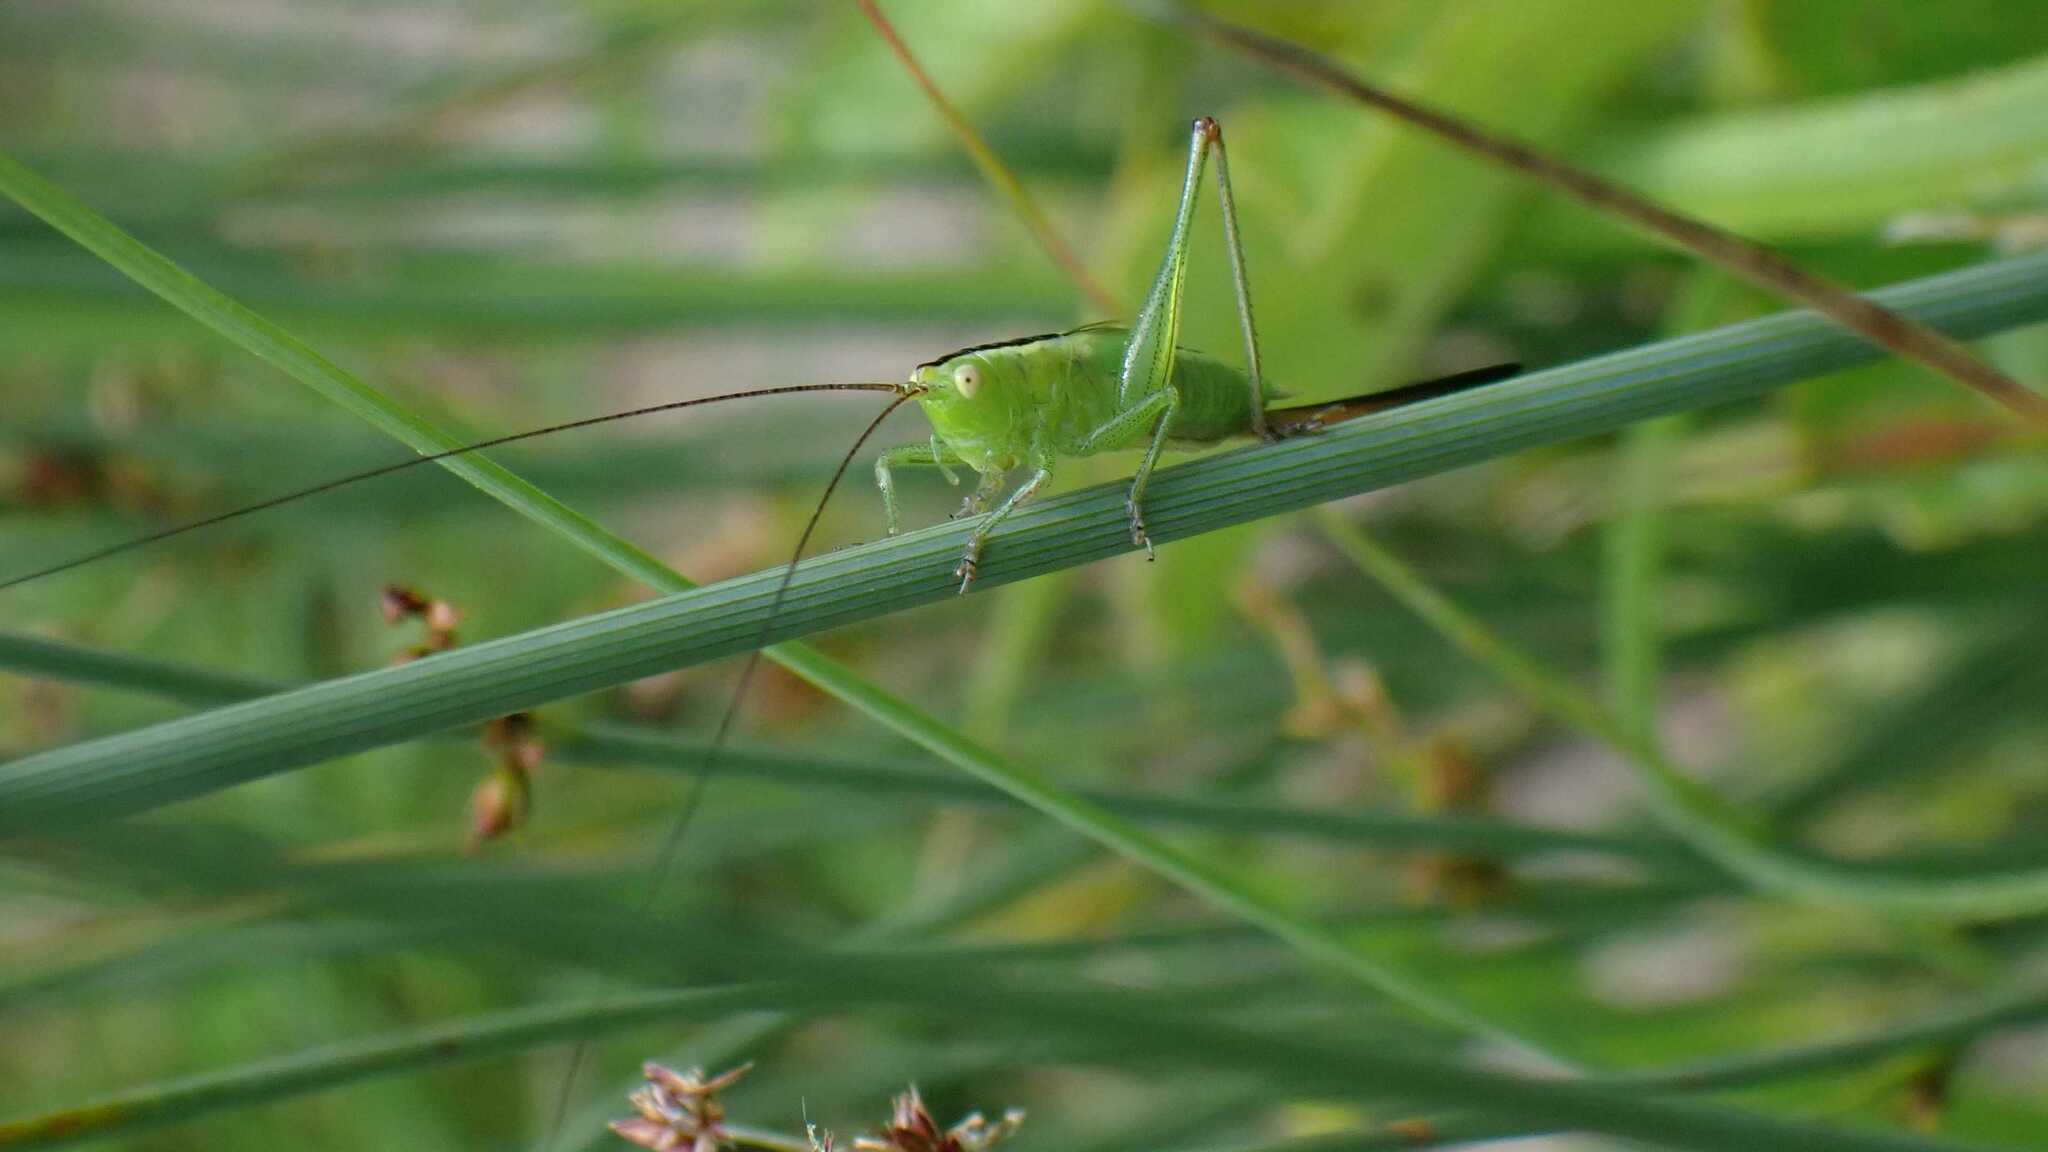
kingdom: Animalia
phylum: Arthropoda
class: Insecta
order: Orthoptera
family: Tettigoniidae
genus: Conocephalus
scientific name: Conocephalus fuscus
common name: Long-winged conehead
